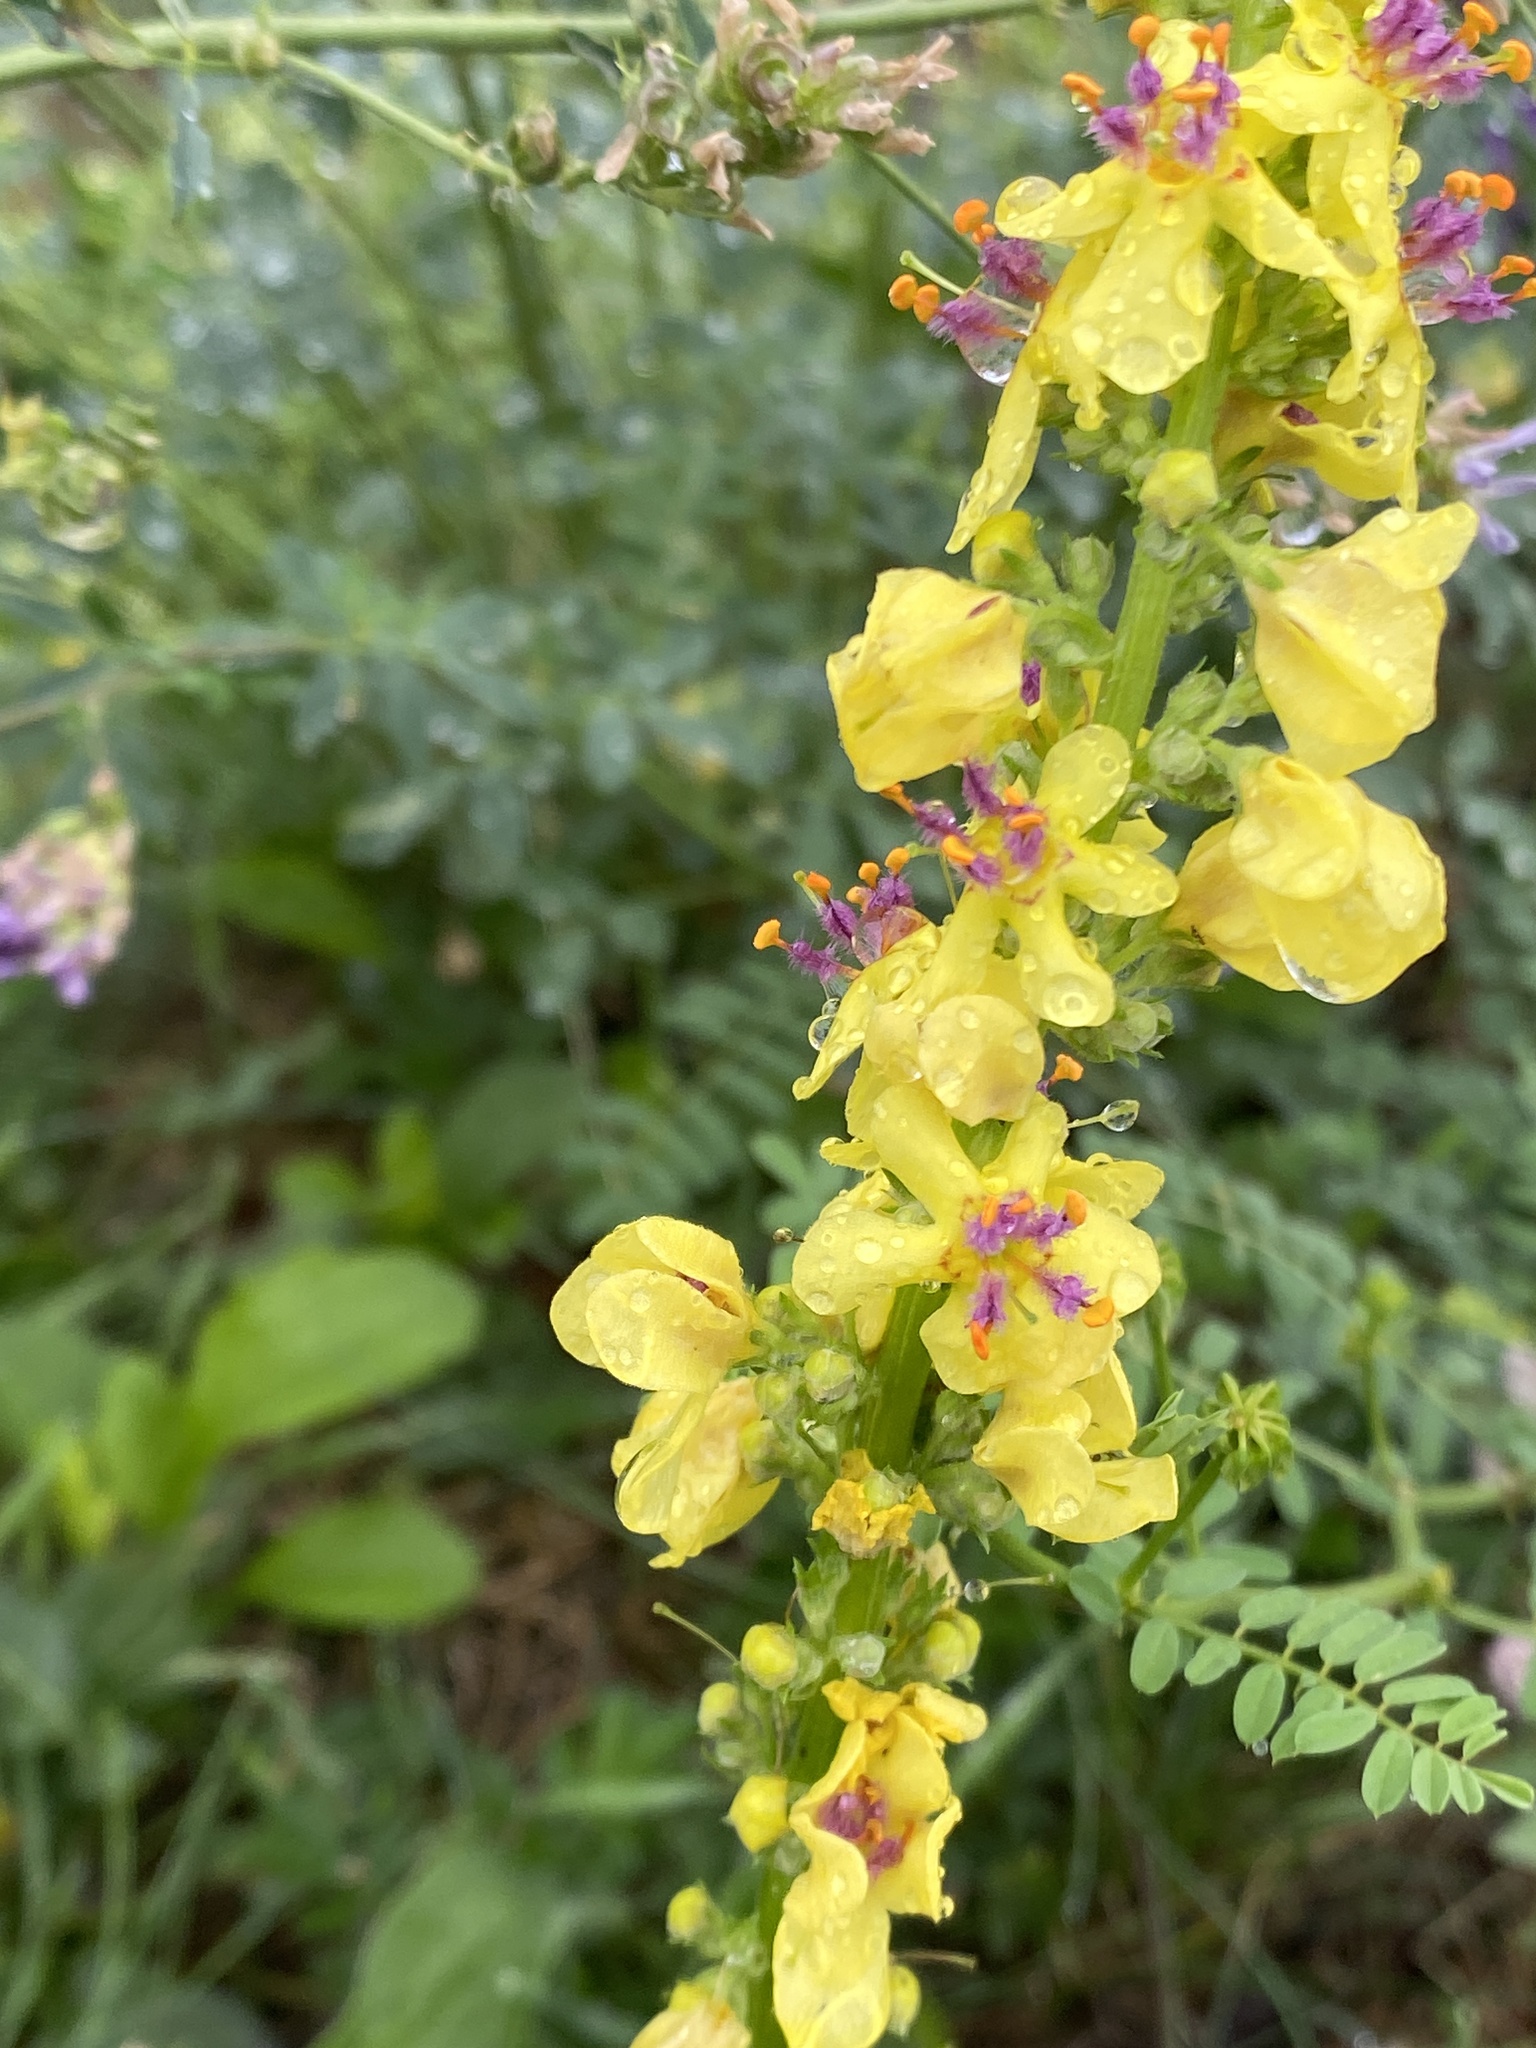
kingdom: Plantae
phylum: Tracheophyta
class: Magnoliopsida
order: Lamiales
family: Scrophulariaceae
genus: Verbascum
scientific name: Verbascum nigrum
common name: Dark mullein
